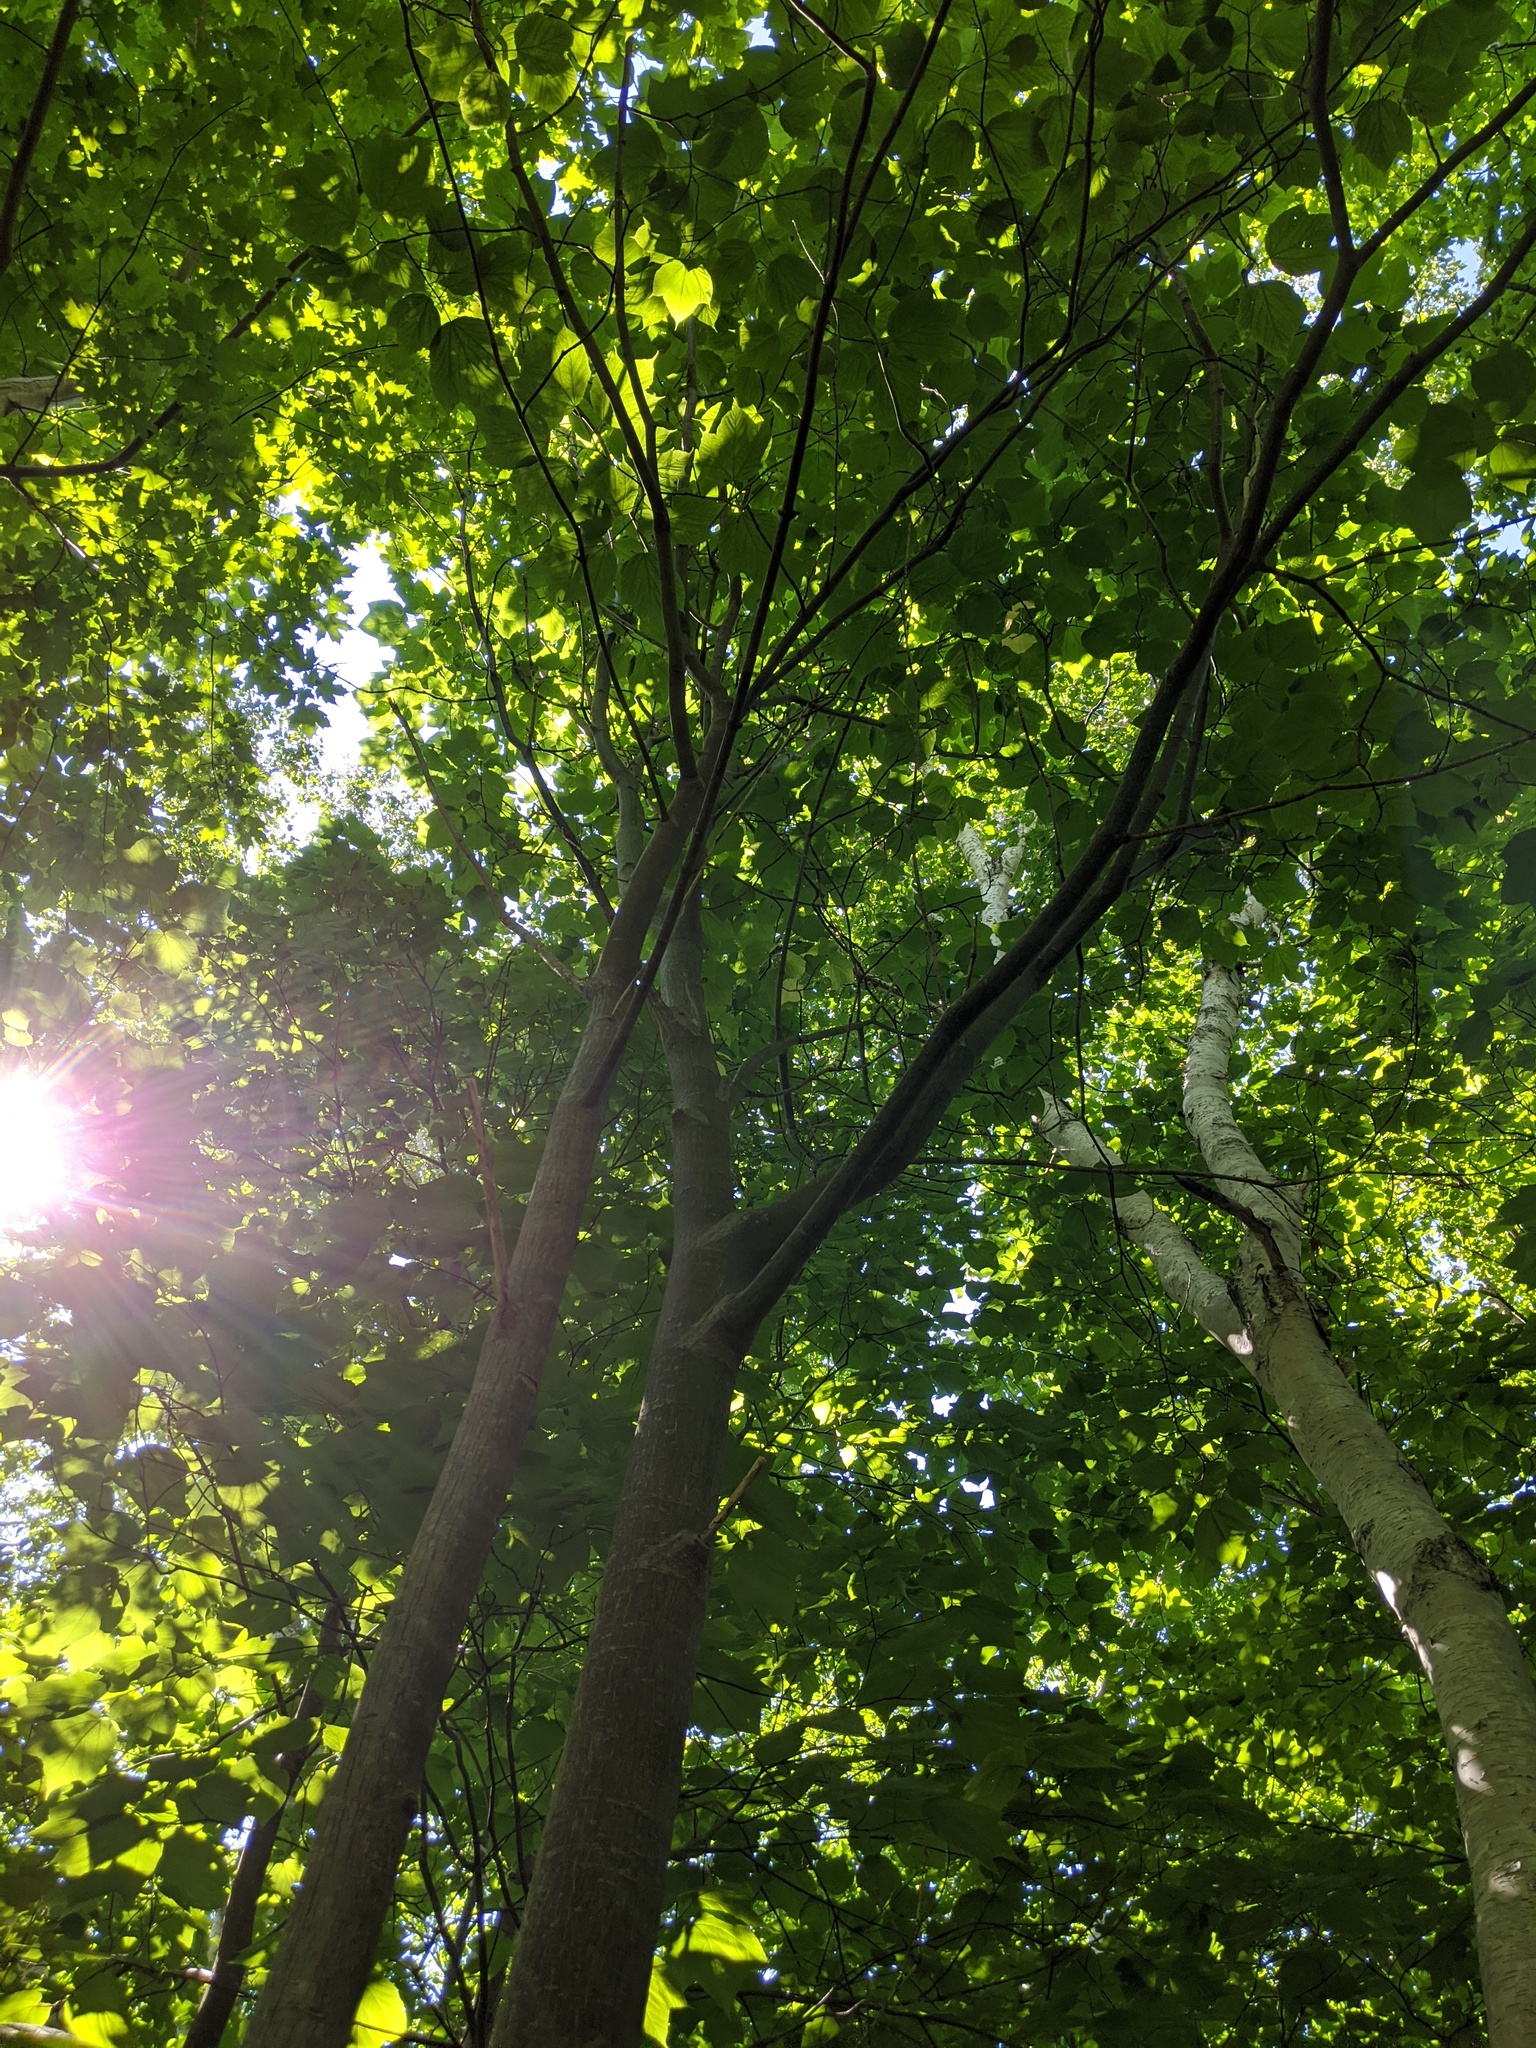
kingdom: Plantae
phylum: Tracheophyta
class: Magnoliopsida
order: Sapindales
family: Sapindaceae
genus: Acer
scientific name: Acer pensylvanicum
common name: Moosewood
